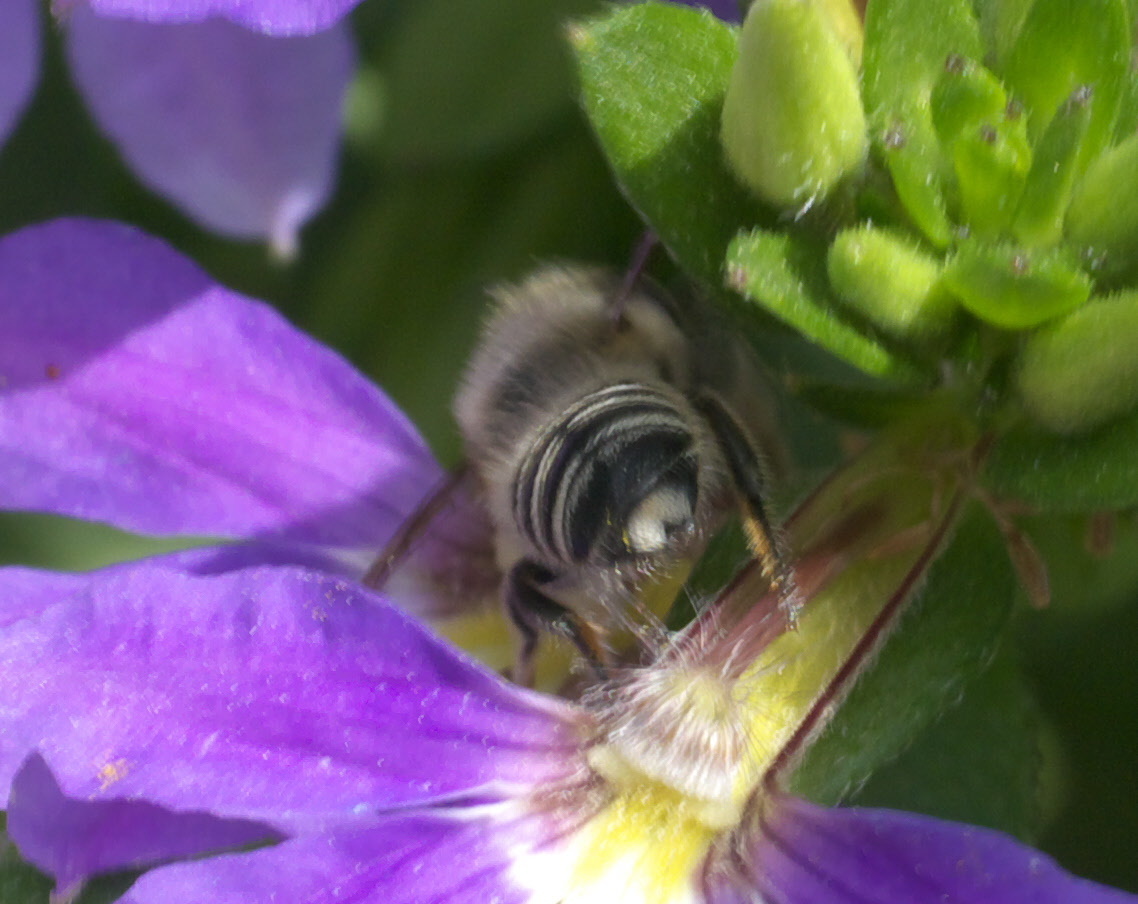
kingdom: Animalia
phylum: Arthropoda
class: Insecta
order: Hymenoptera
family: Megachilidae
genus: Megachile
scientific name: Megachile
